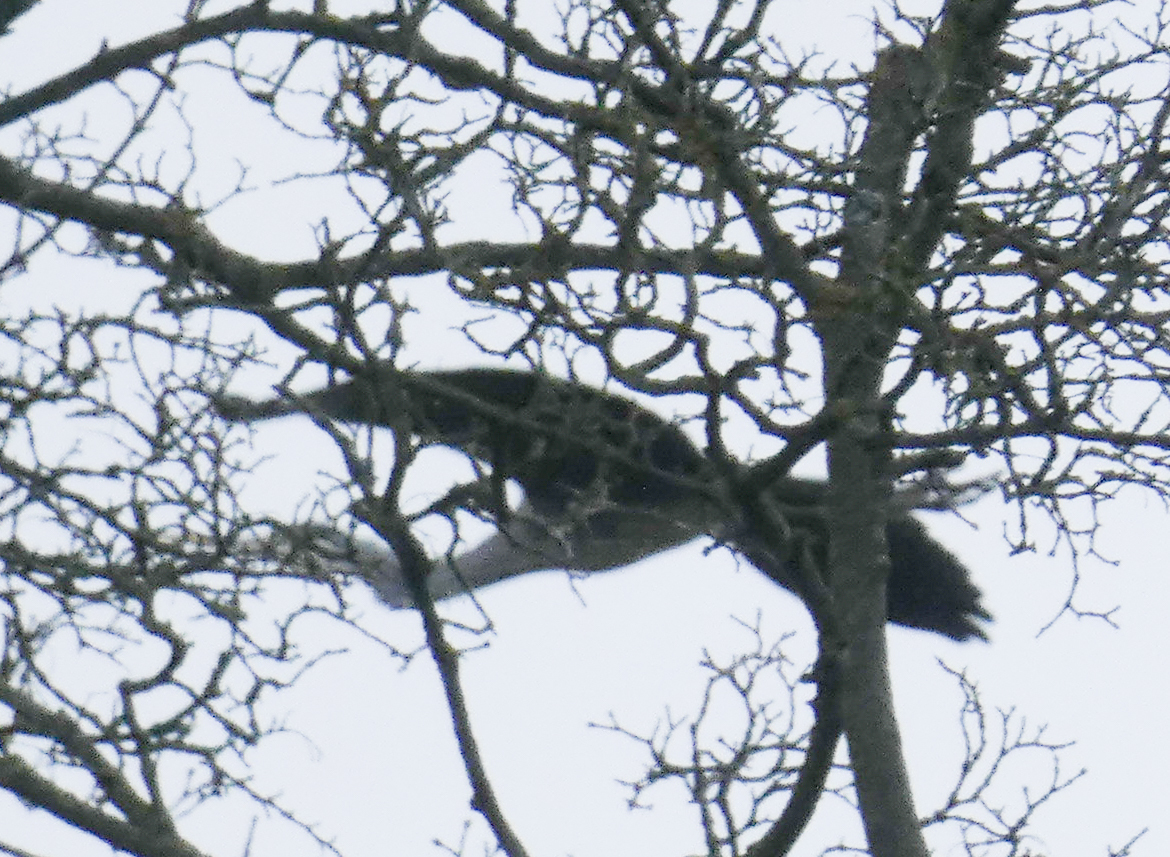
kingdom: Animalia
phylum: Chordata
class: Aves
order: Pelecaniformes
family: Ardeidae
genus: Ardea
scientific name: Ardea cinerea
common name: Grey heron
